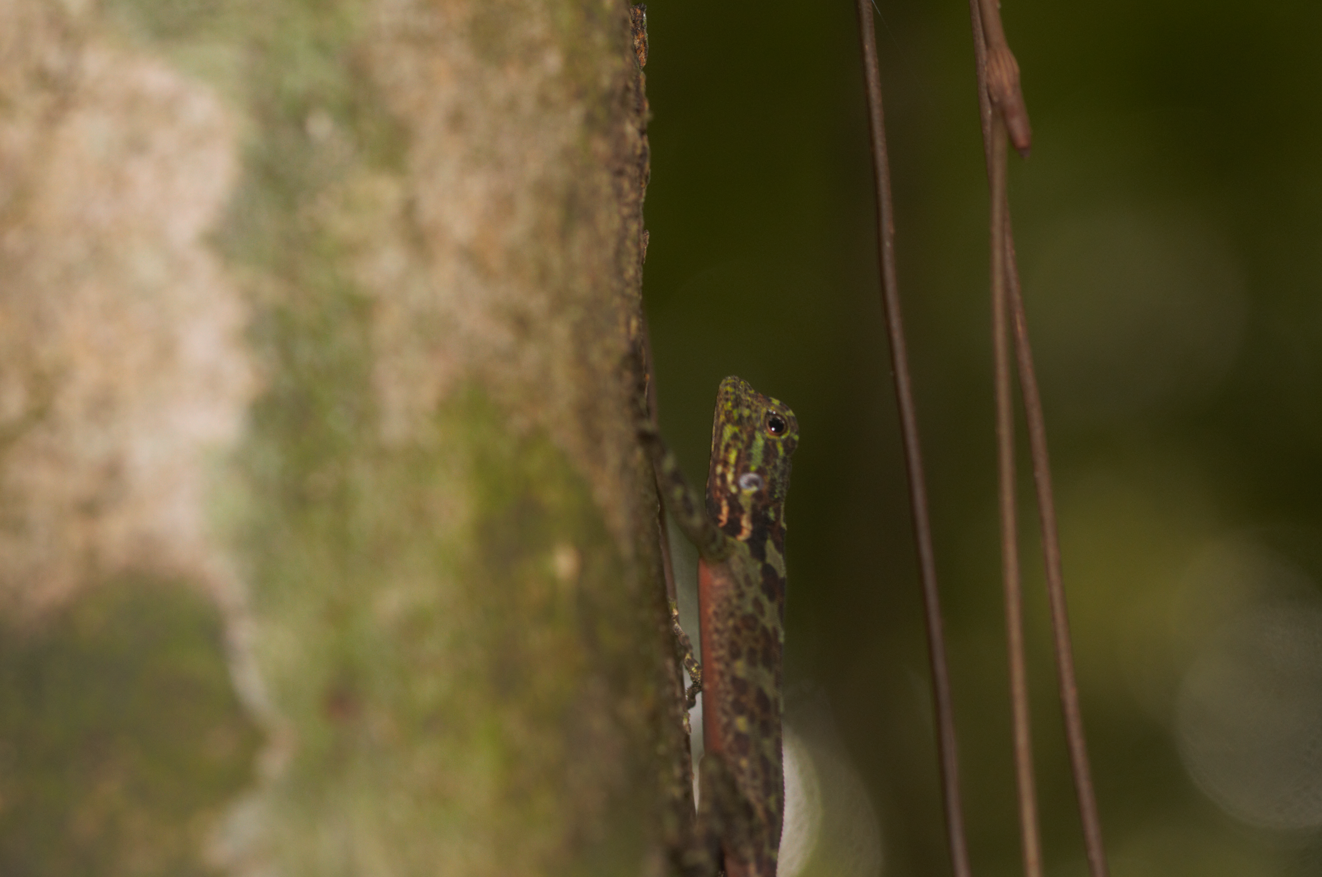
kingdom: Animalia
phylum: Chordata
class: Squamata
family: Tropiduridae
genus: Plica
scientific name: Plica plica
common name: Tree runner
